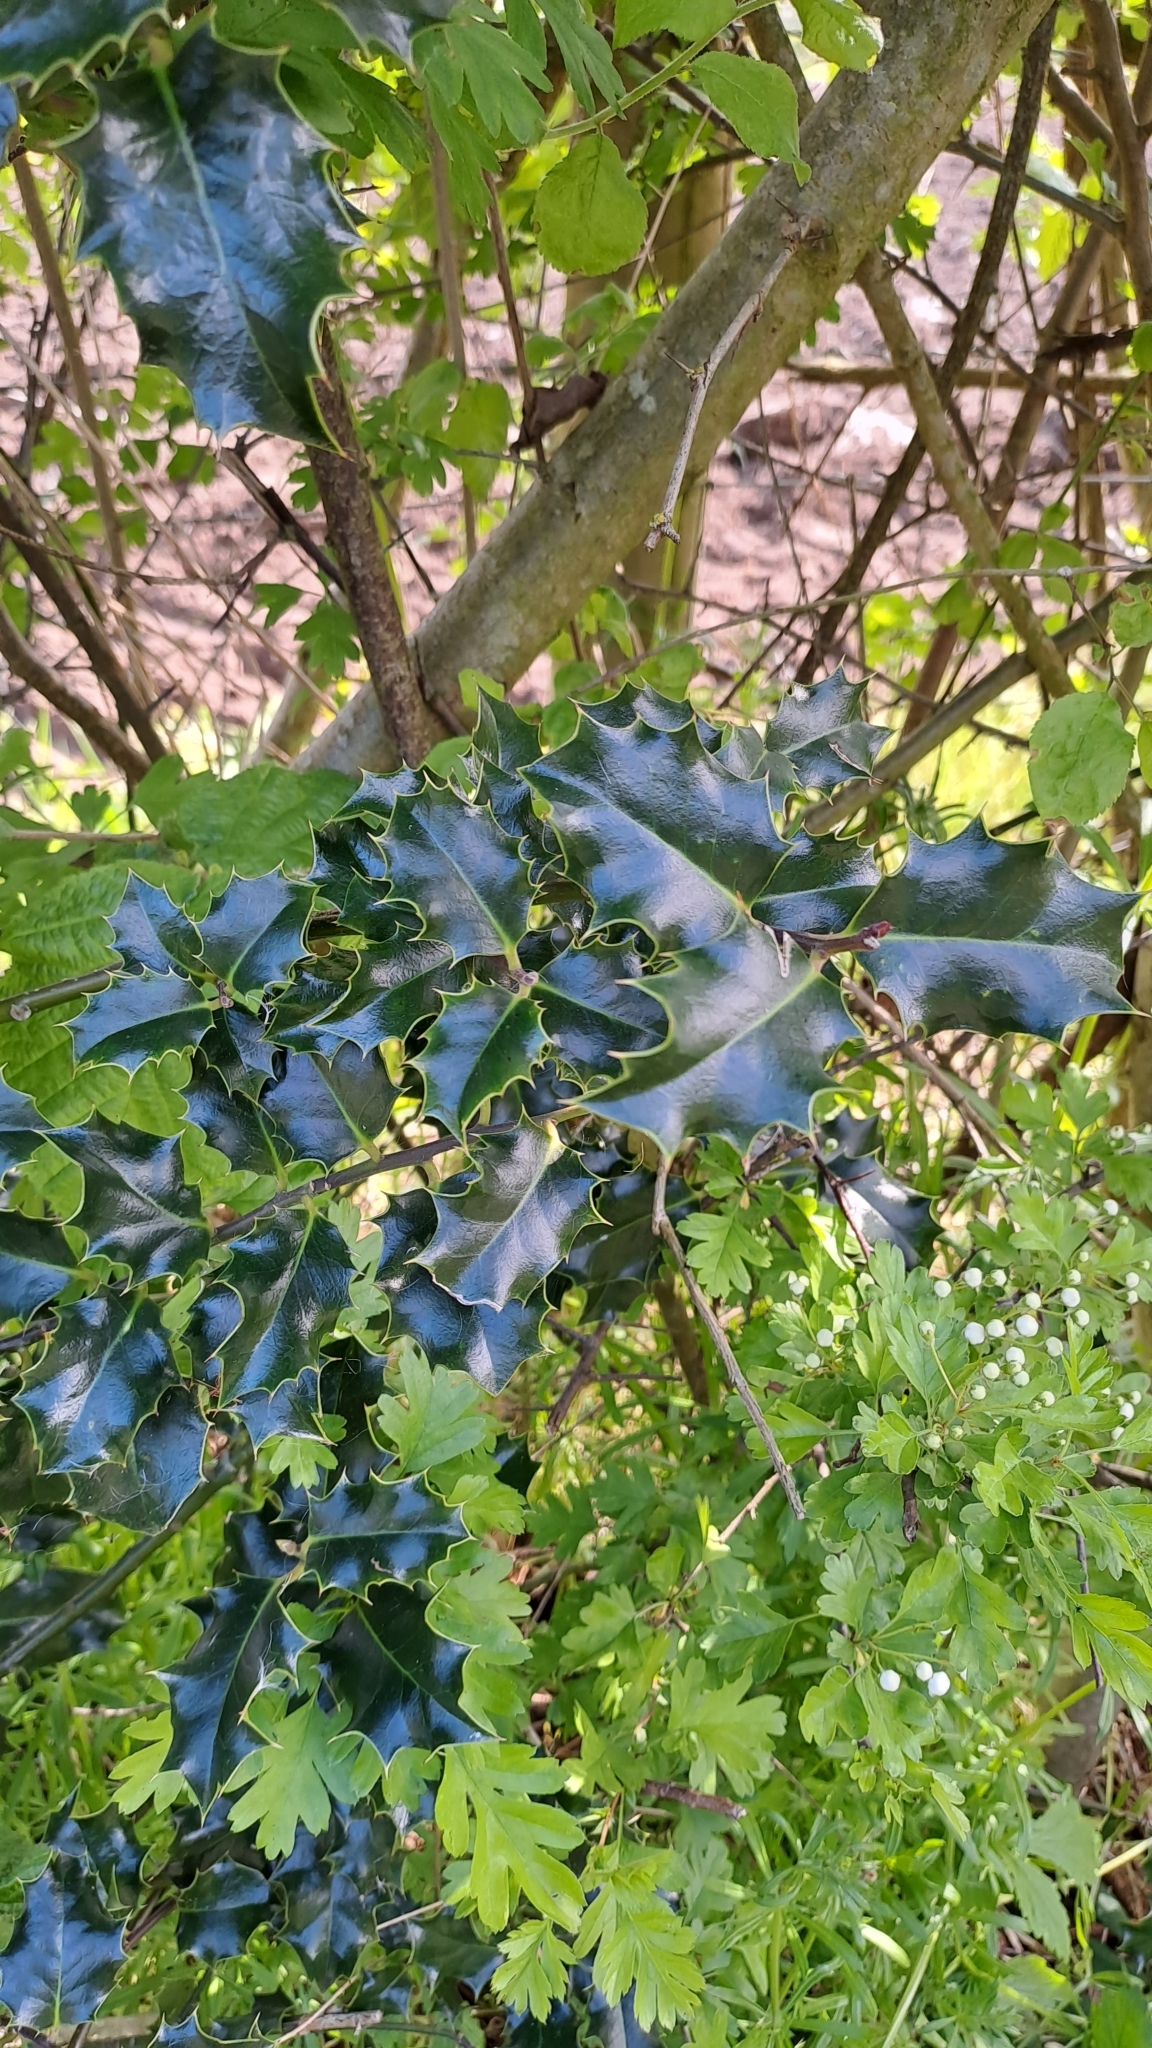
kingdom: Plantae
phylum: Tracheophyta
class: Magnoliopsida
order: Aquifoliales
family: Aquifoliaceae
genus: Ilex
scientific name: Ilex aquifolium
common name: English holly
